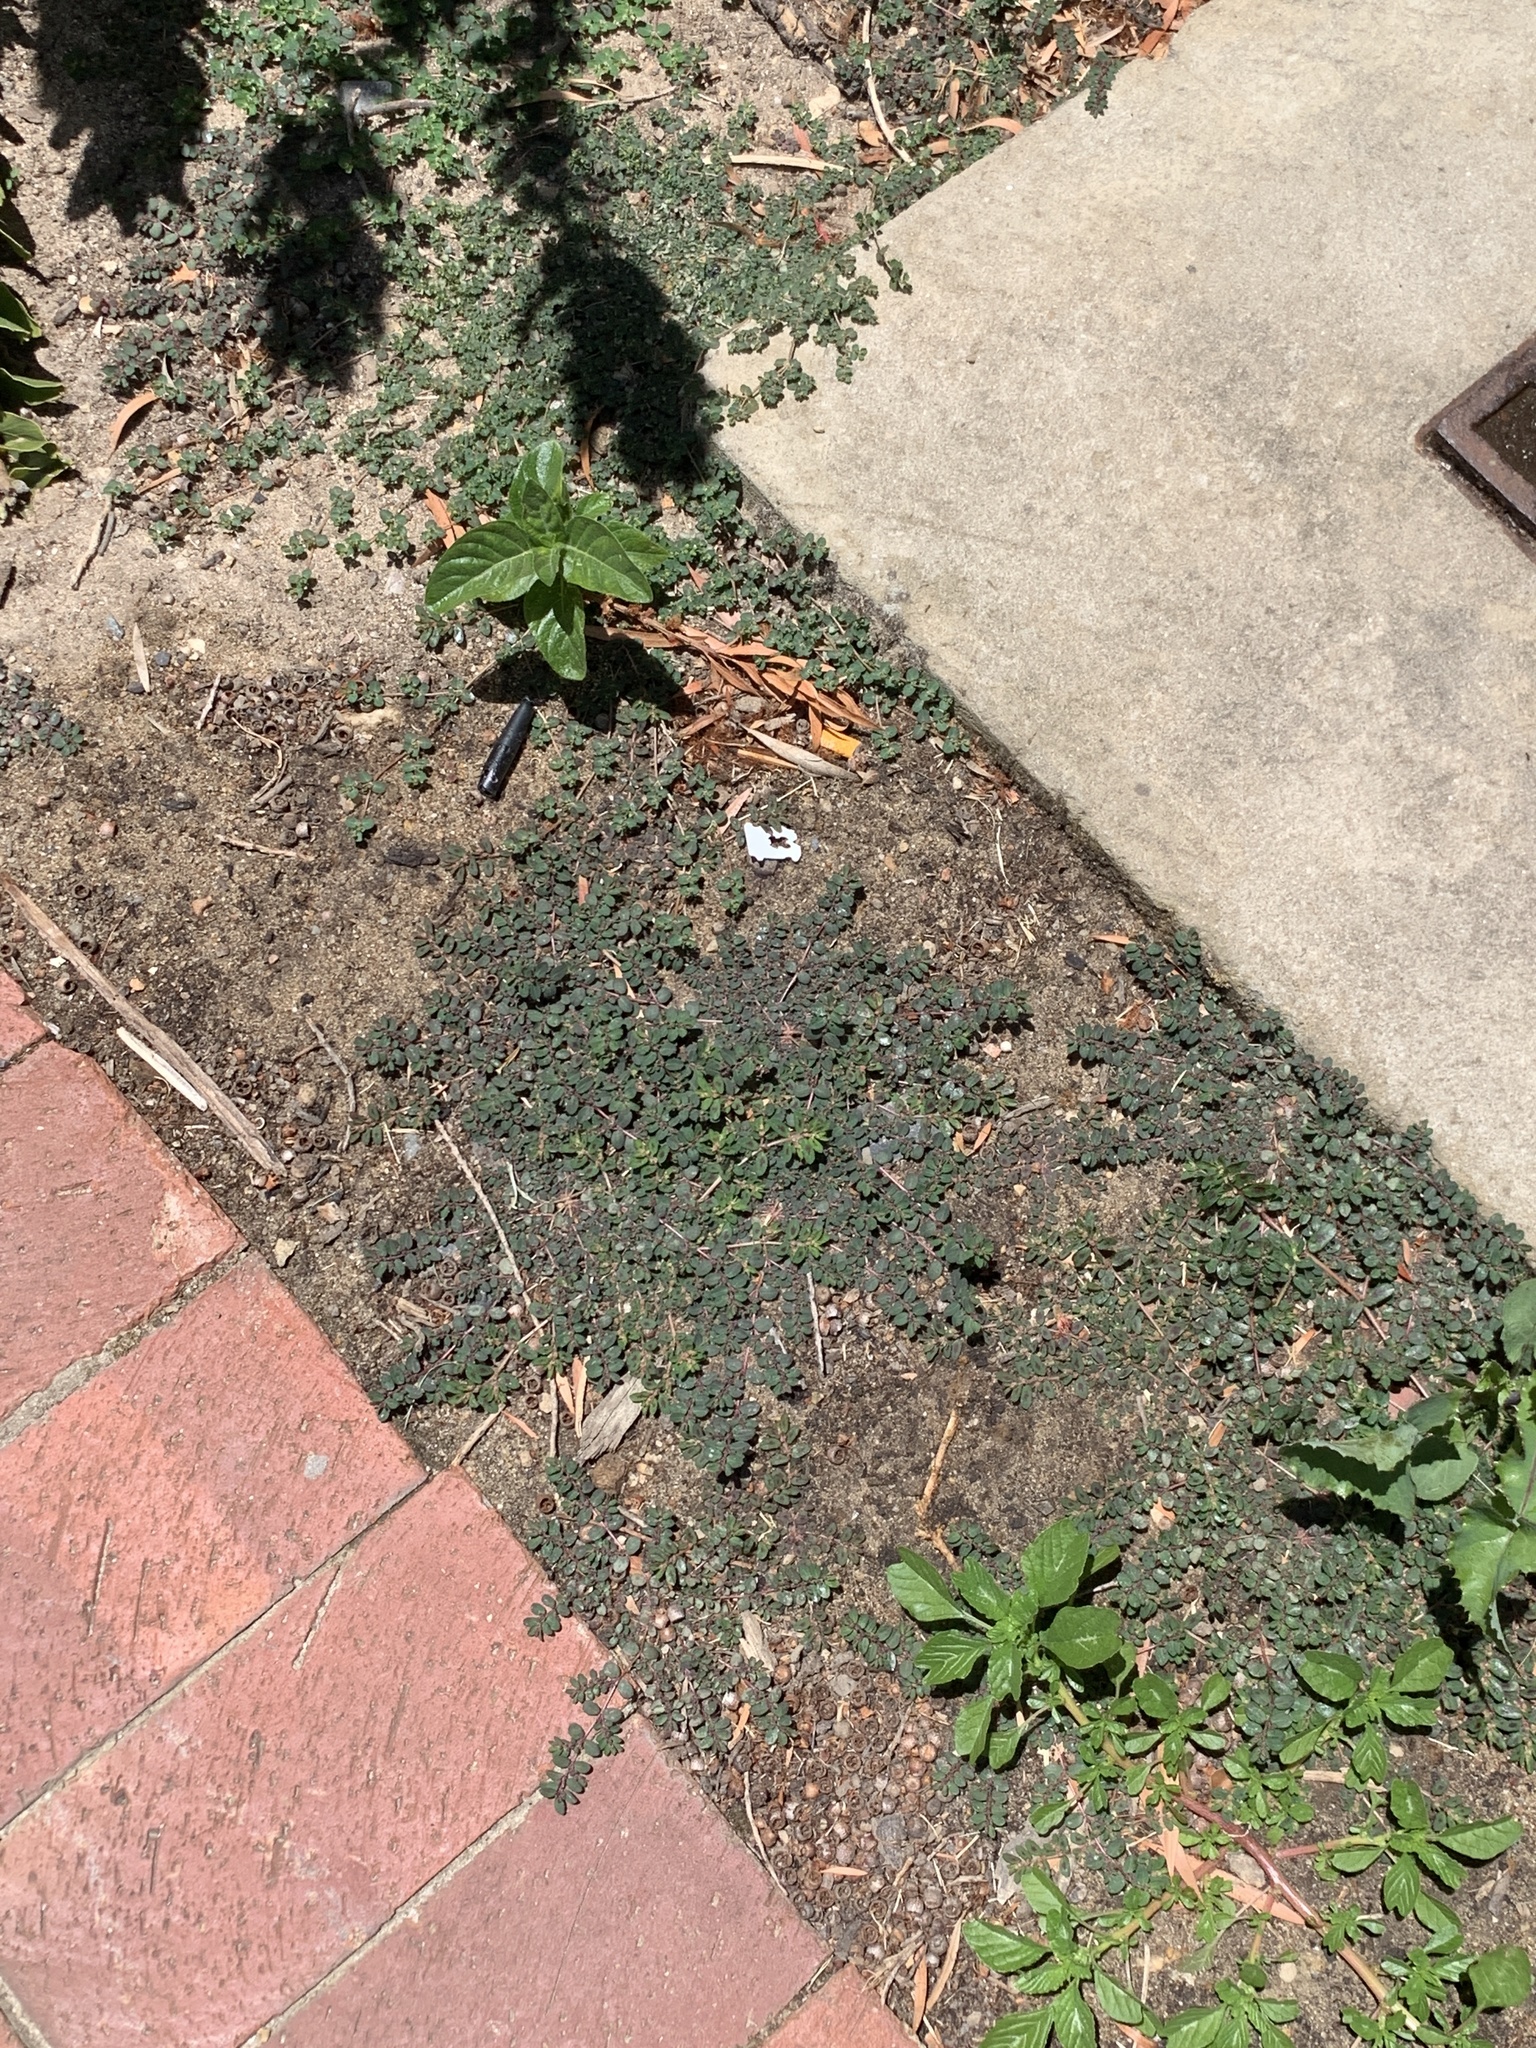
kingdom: Plantae
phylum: Tracheophyta
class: Magnoliopsida
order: Malpighiales
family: Euphorbiaceae
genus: Euphorbia
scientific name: Euphorbia maculata
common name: Spotted spurge
